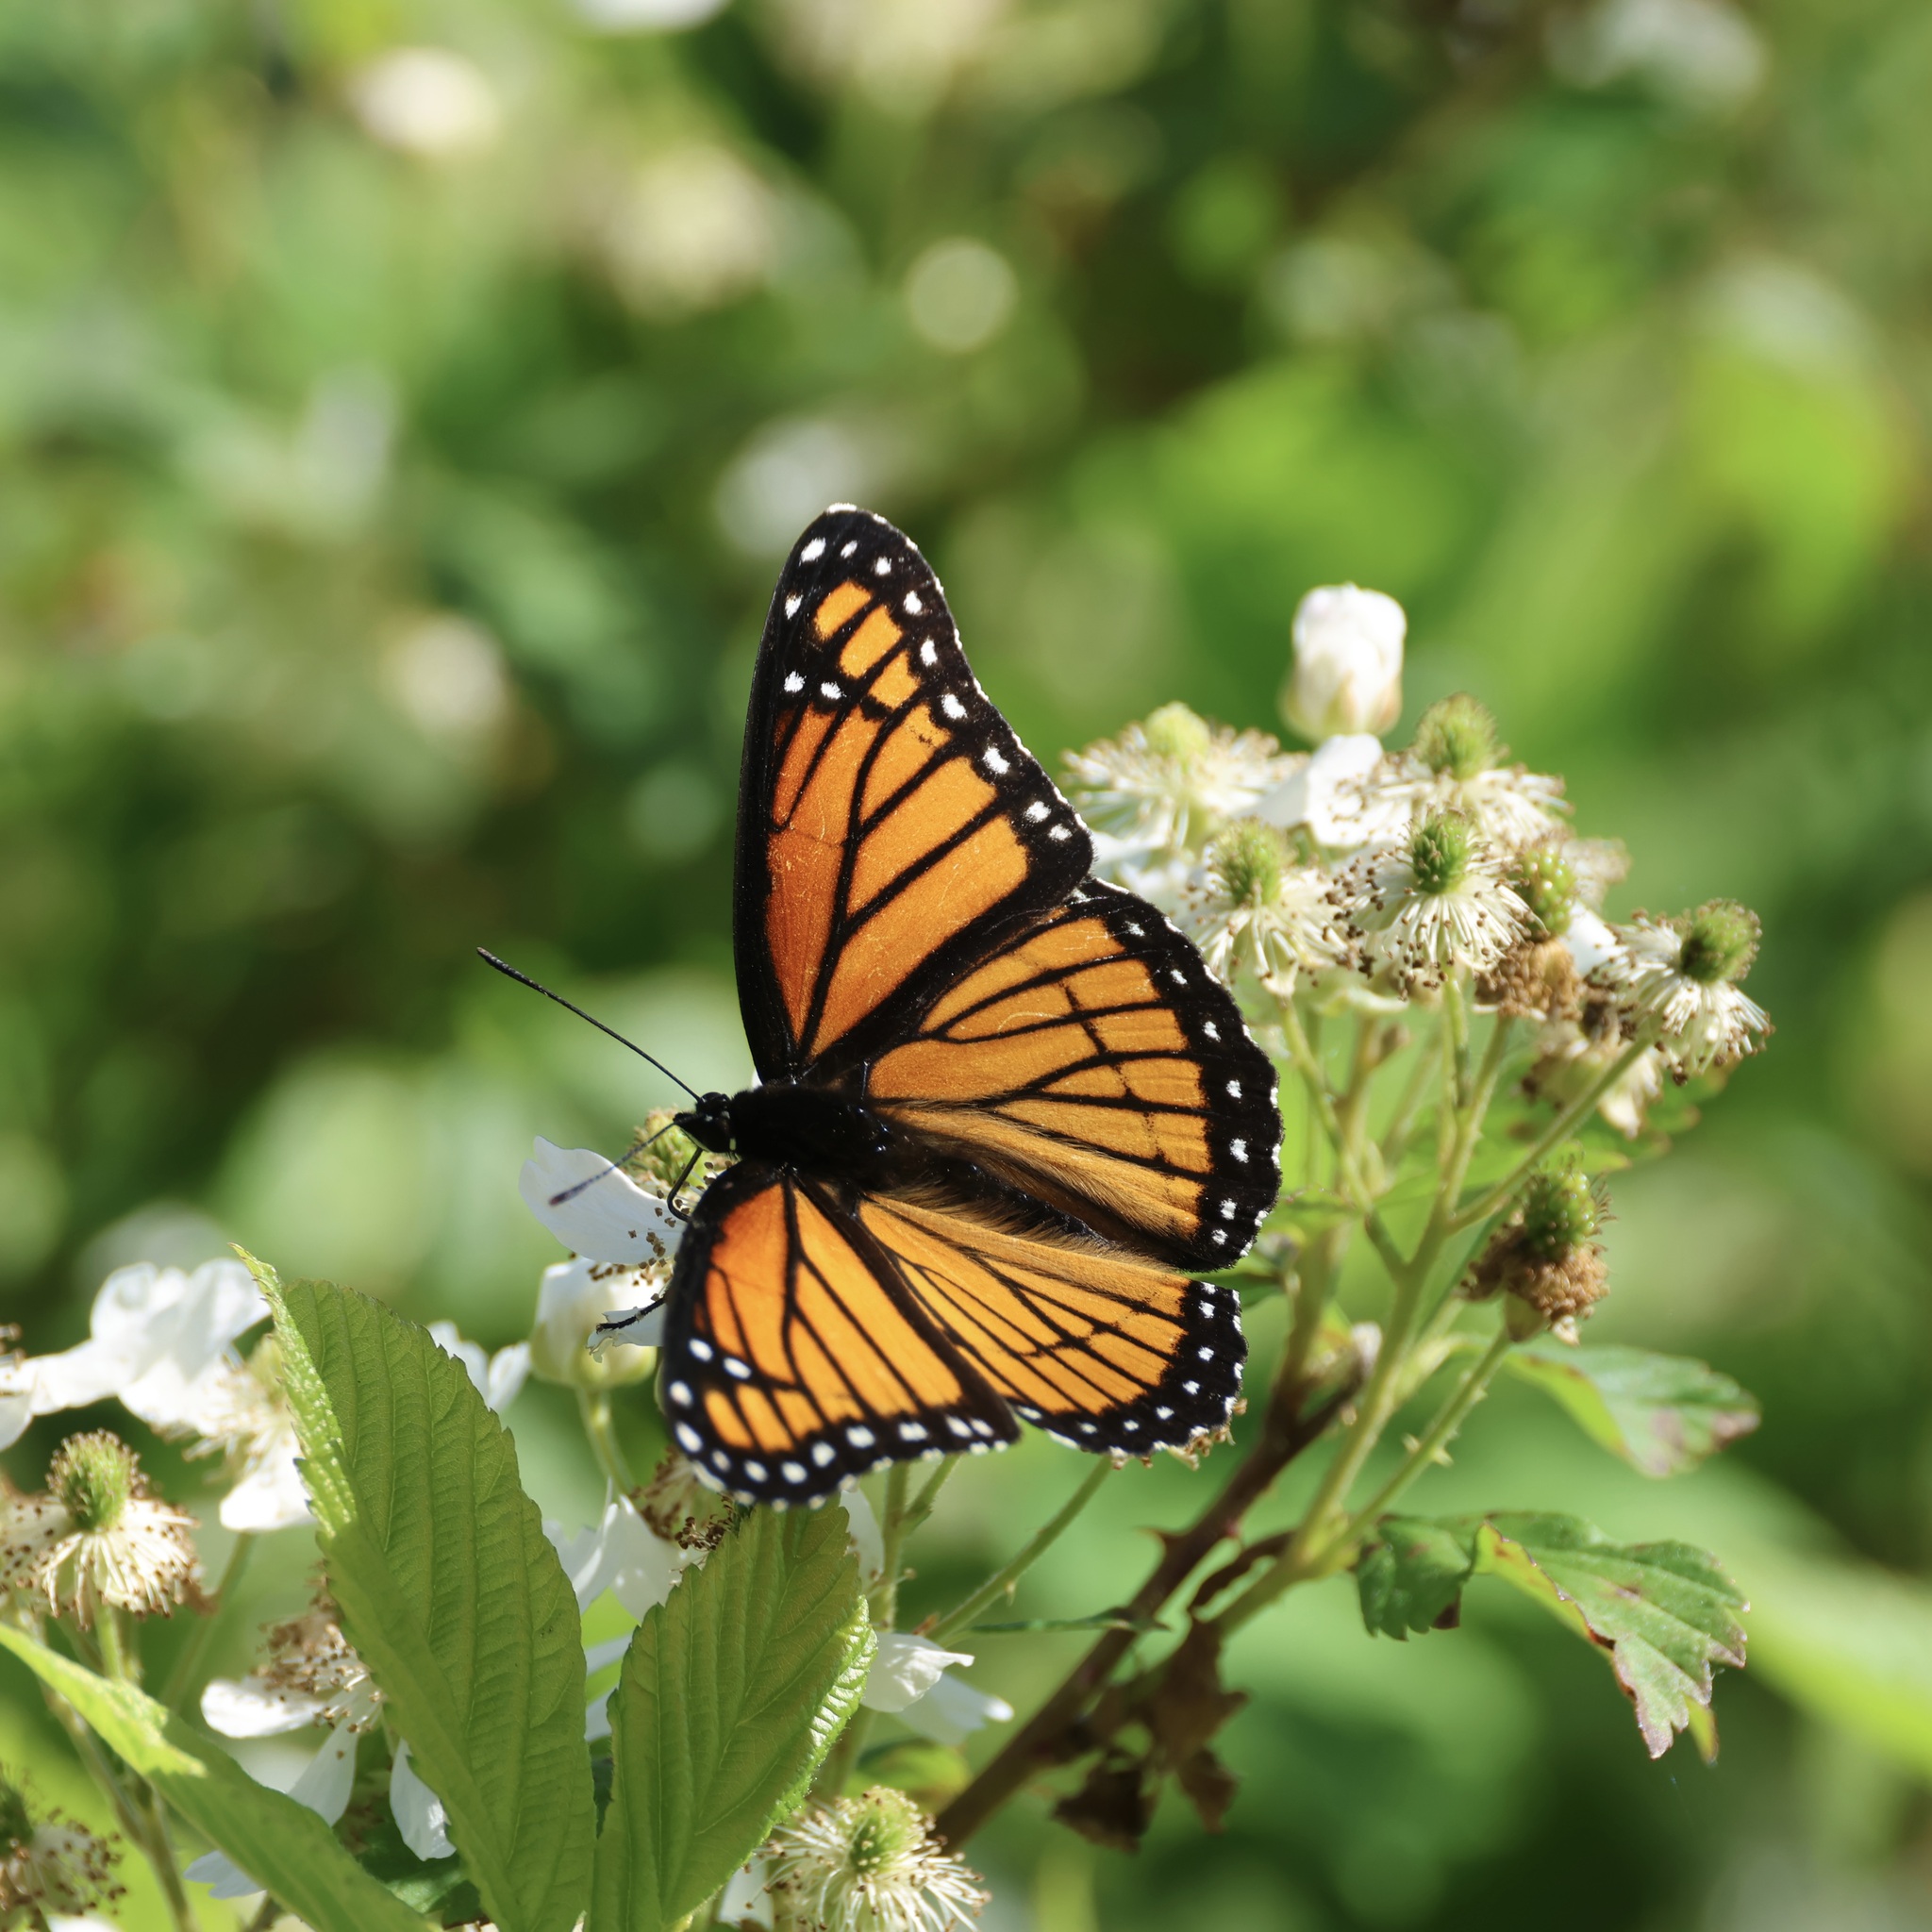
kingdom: Animalia
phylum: Arthropoda
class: Insecta
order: Lepidoptera
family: Nymphalidae
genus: Limenitis
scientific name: Limenitis archippus
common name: Viceroy
